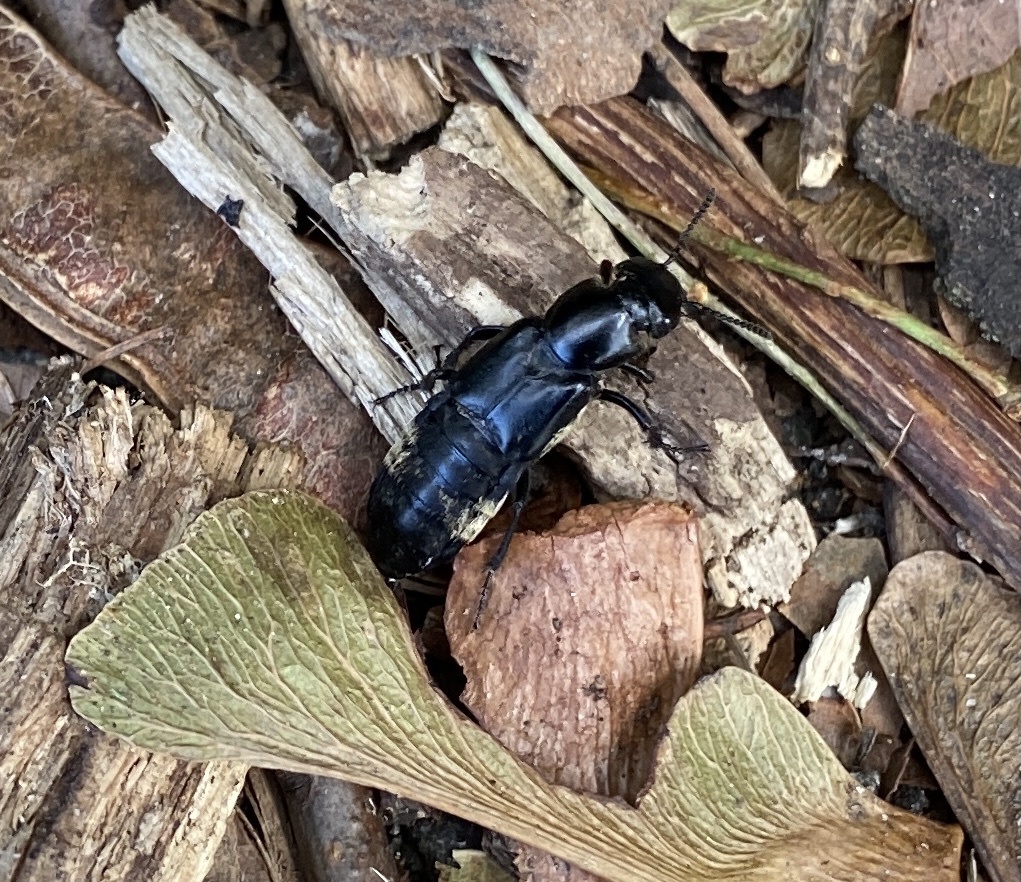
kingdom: Animalia
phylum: Arthropoda
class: Insecta
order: Coleoptera
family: Staphylinidae
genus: Creophilus
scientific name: Creophilus maxillosus
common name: Hairy rove beetle
